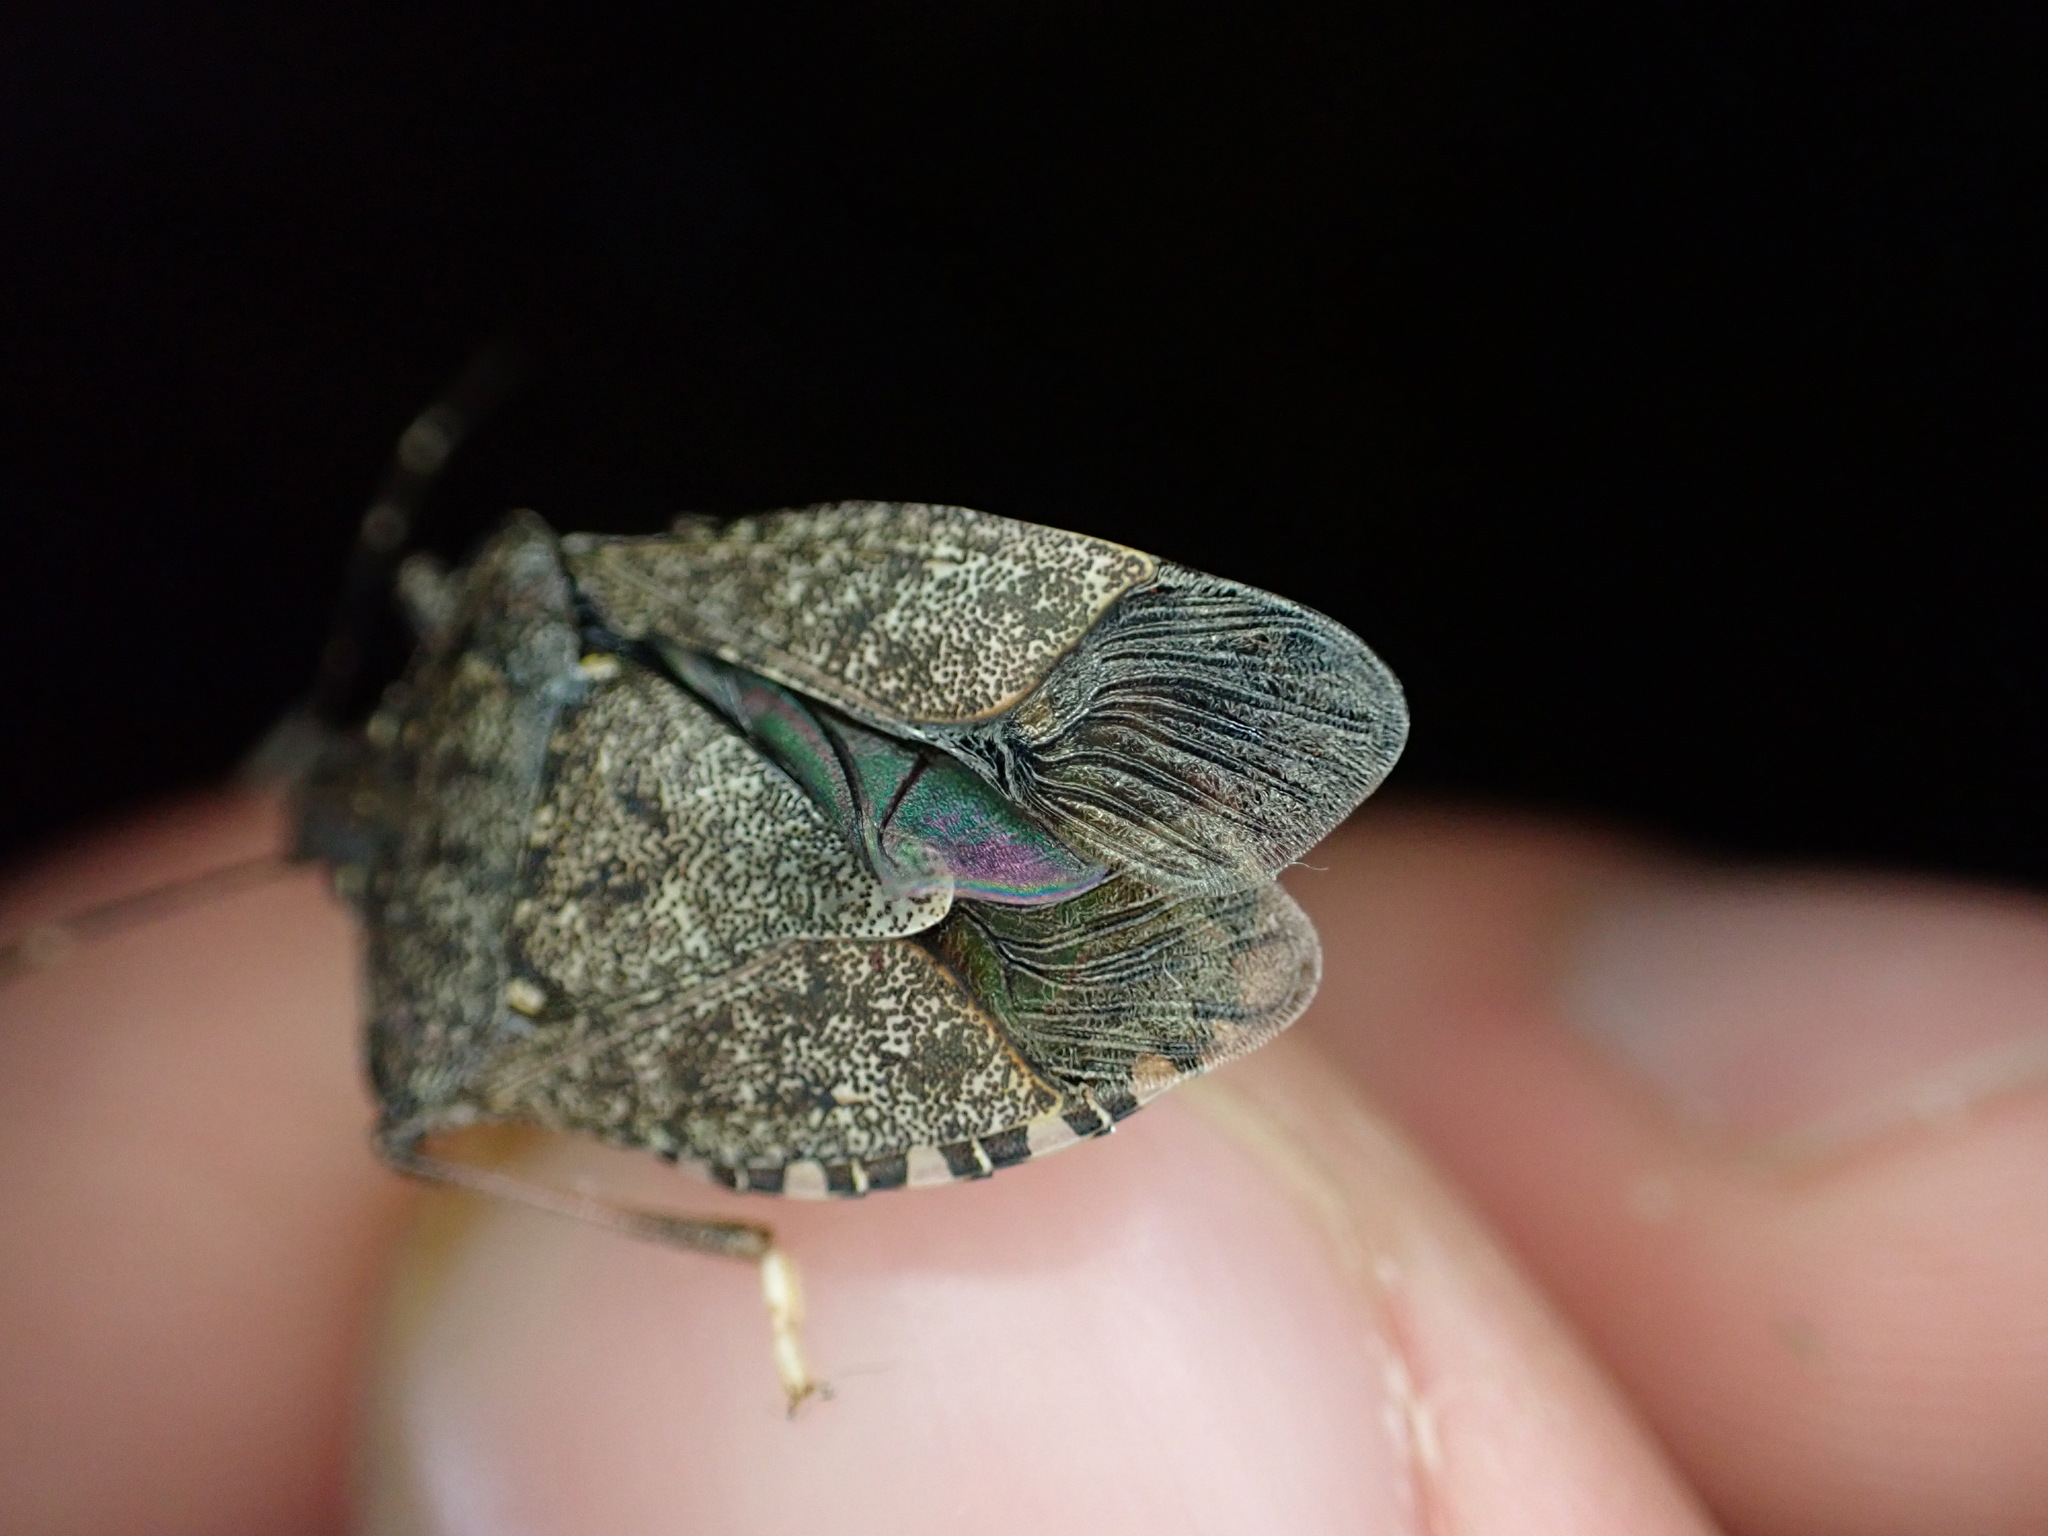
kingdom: Animalia
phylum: Arthropoda
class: Insecta
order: Hemiptera
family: Pentatomidae
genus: Halyomorpha
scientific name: Halyomorpha halys
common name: Brown marmorated stink bug
